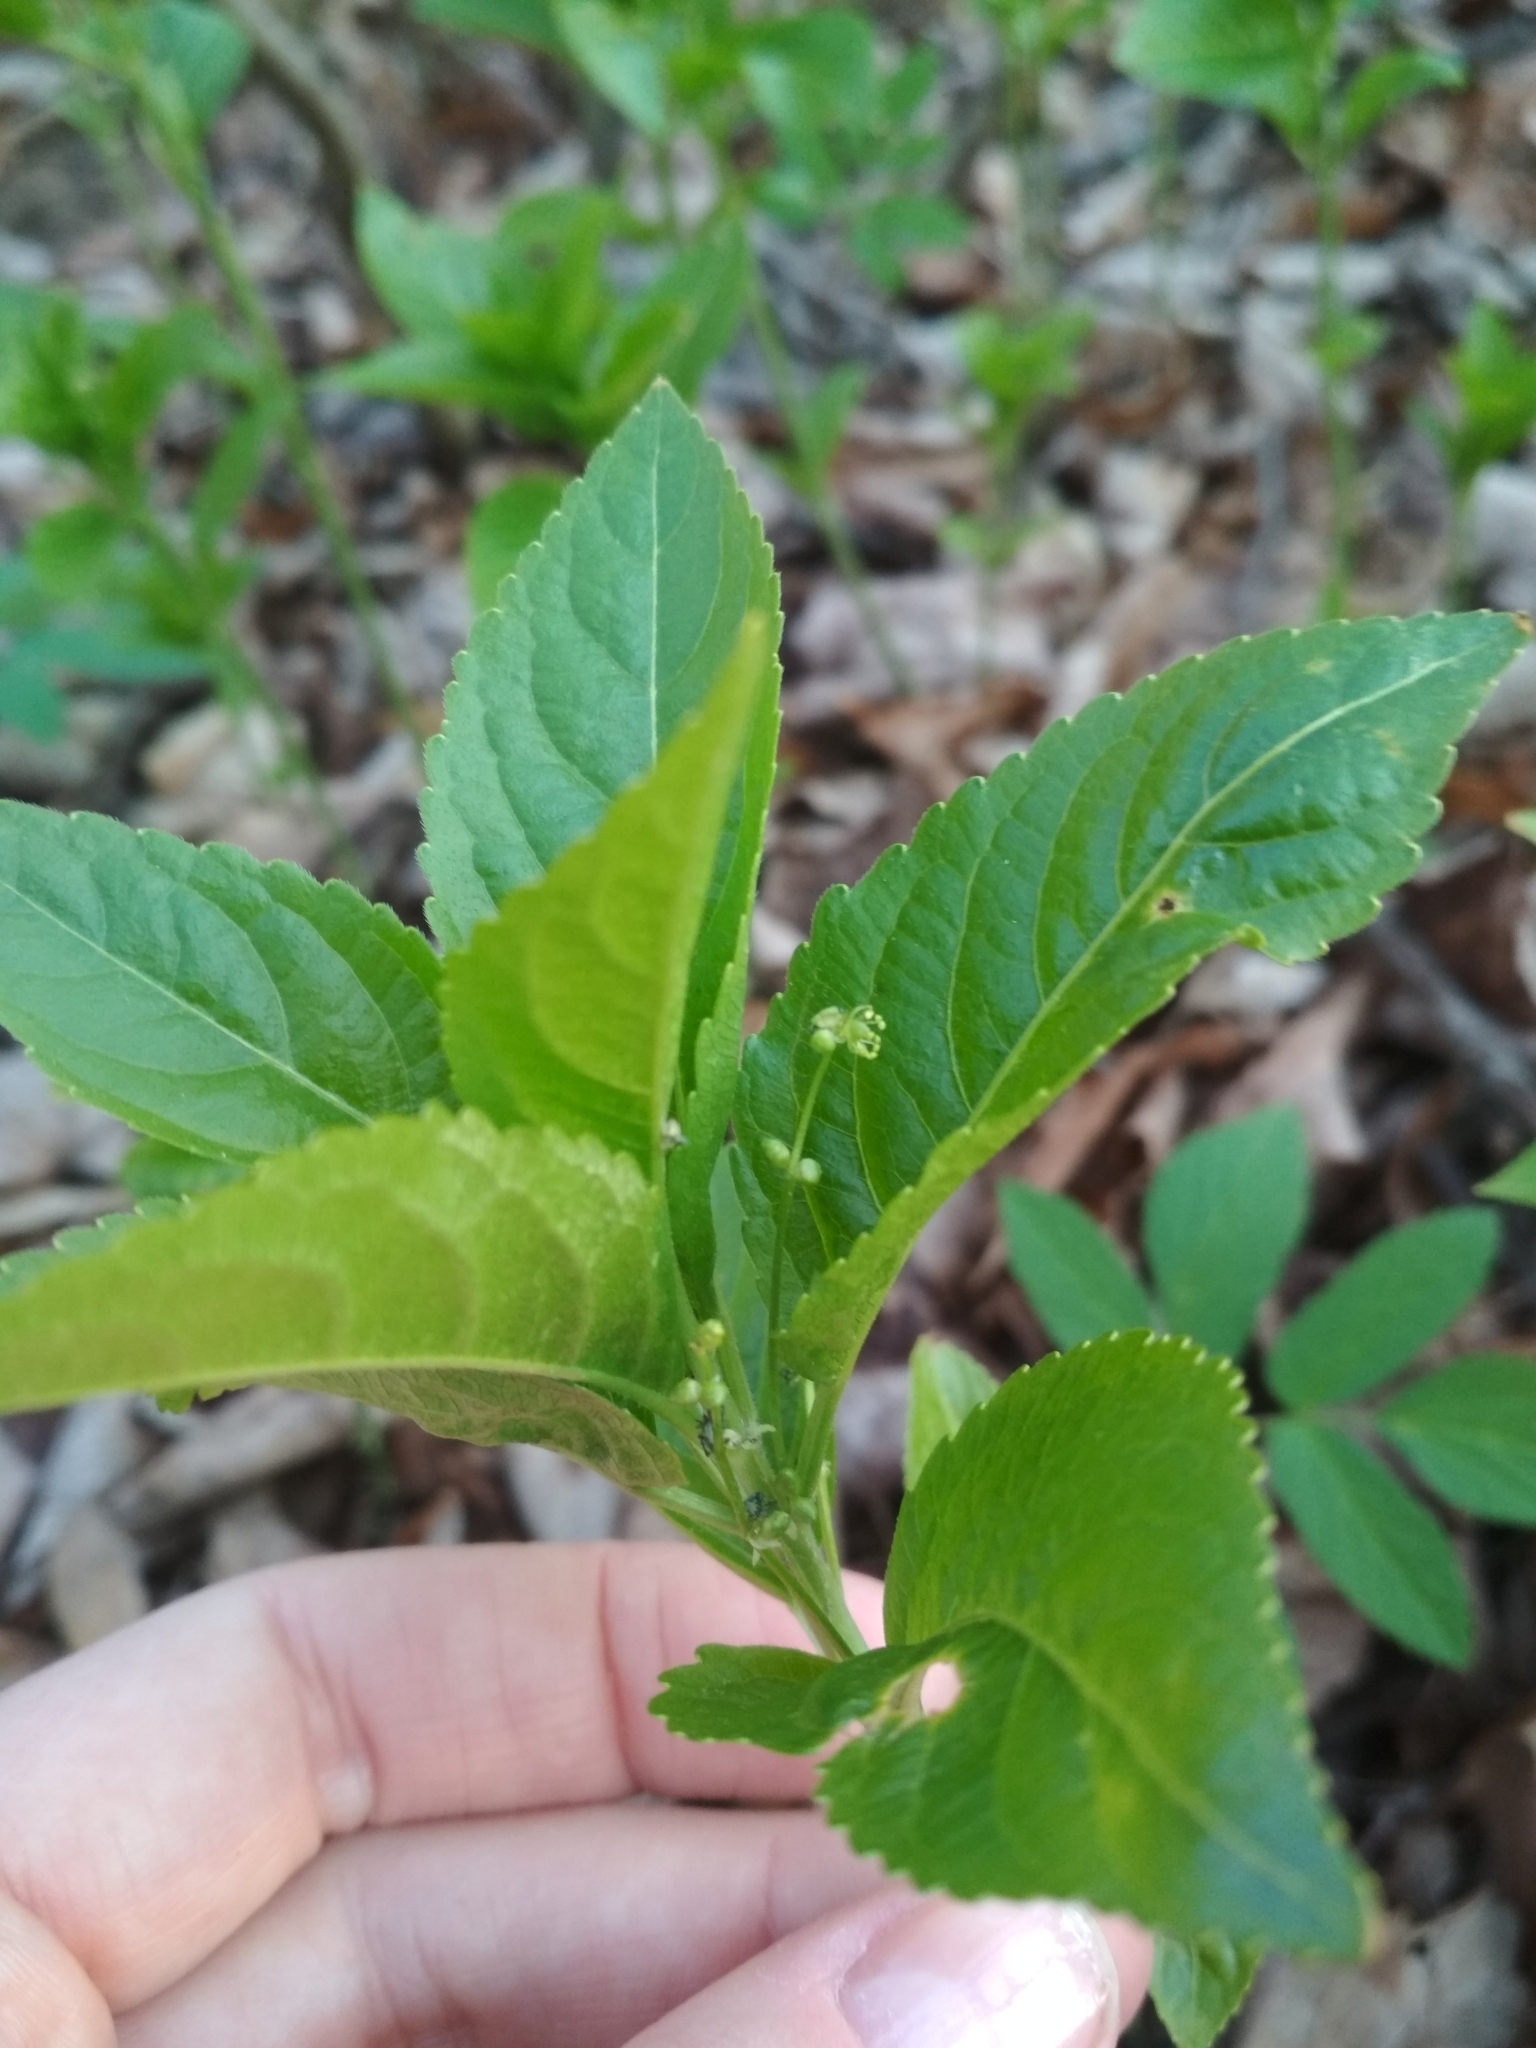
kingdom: Plantae
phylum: Tracheophyta
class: Magnoliopsida
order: Malpighiales
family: Euphorbiaceae
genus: Mercurialis
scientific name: Mercurialis perennis
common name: Dog mercury
